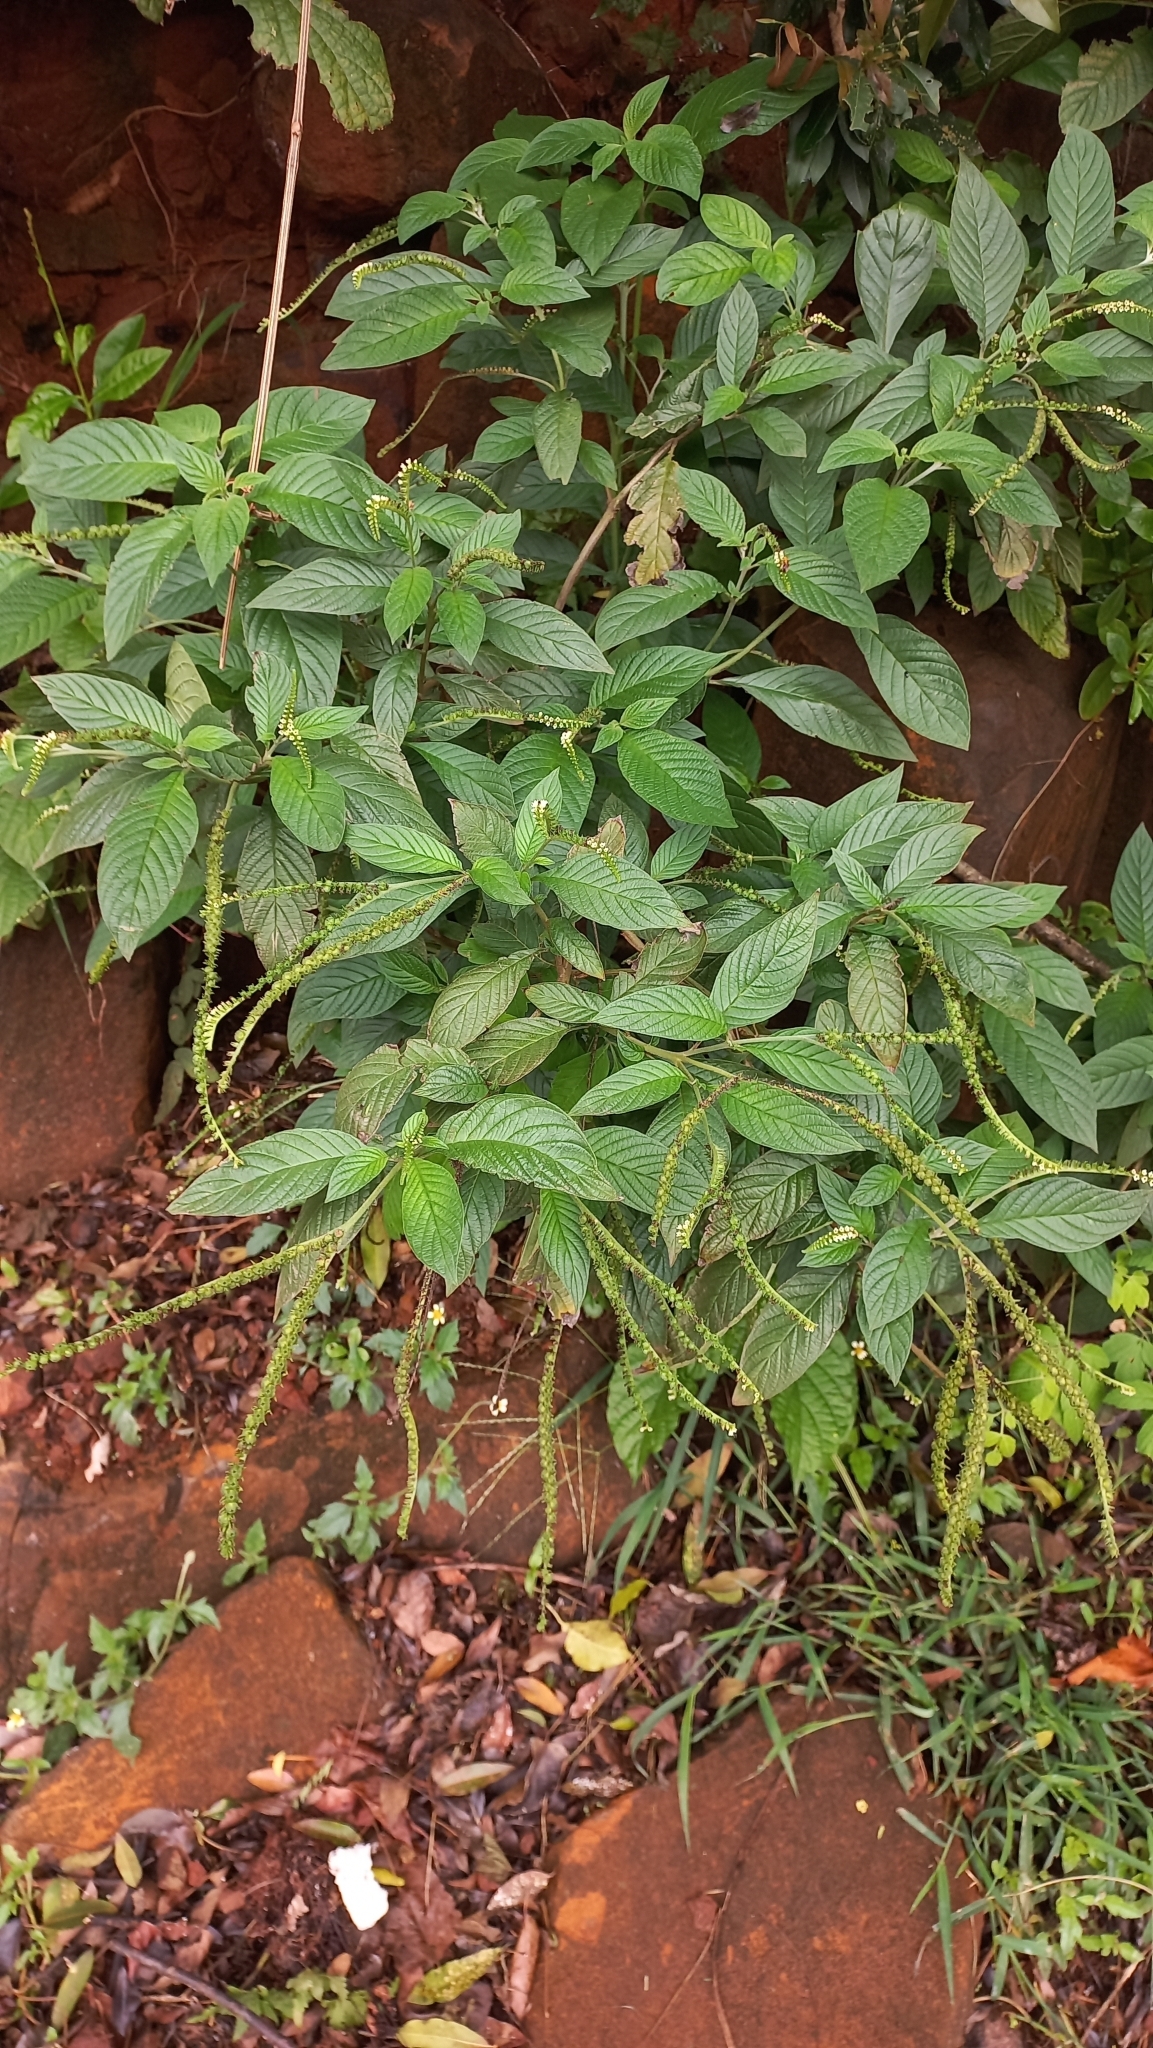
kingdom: Plantae
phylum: Tracheophyta
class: Magnoliopsida
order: Boraginales
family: Heliotropiaceae
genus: Heliotropium
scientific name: Heliotropium tiaridioides
